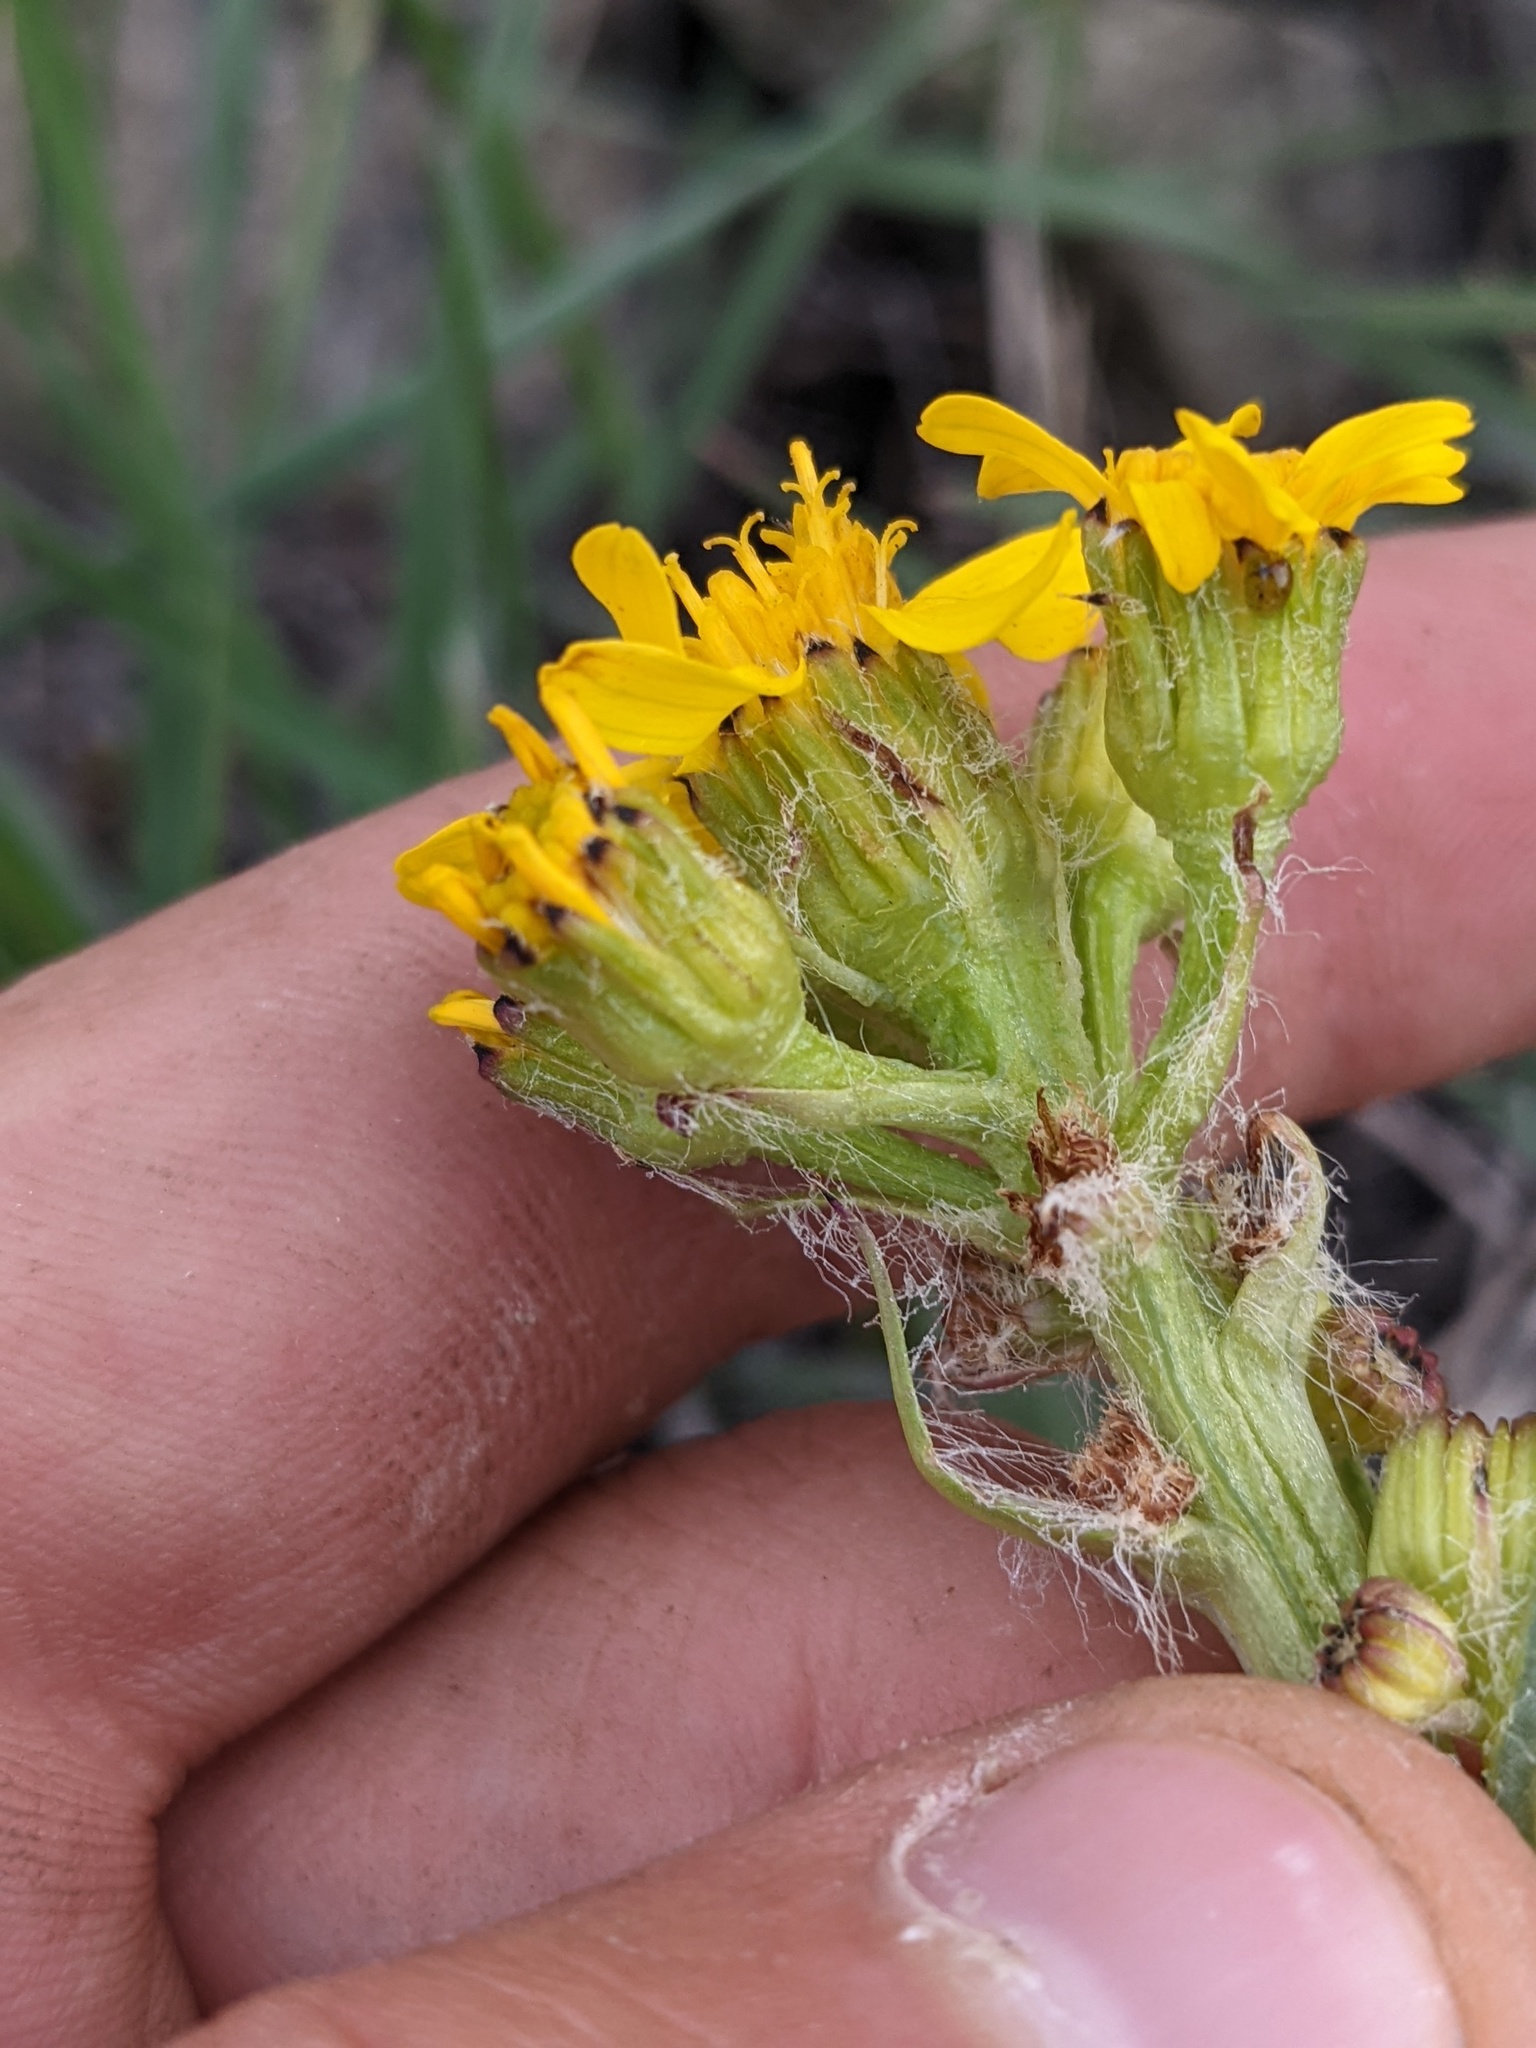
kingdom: Plantae
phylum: Tracheophyta
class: Magnoliopsida
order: Asterales
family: Asteraceae
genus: Senecio
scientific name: Senecio integerrimus
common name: Gaugeplant
